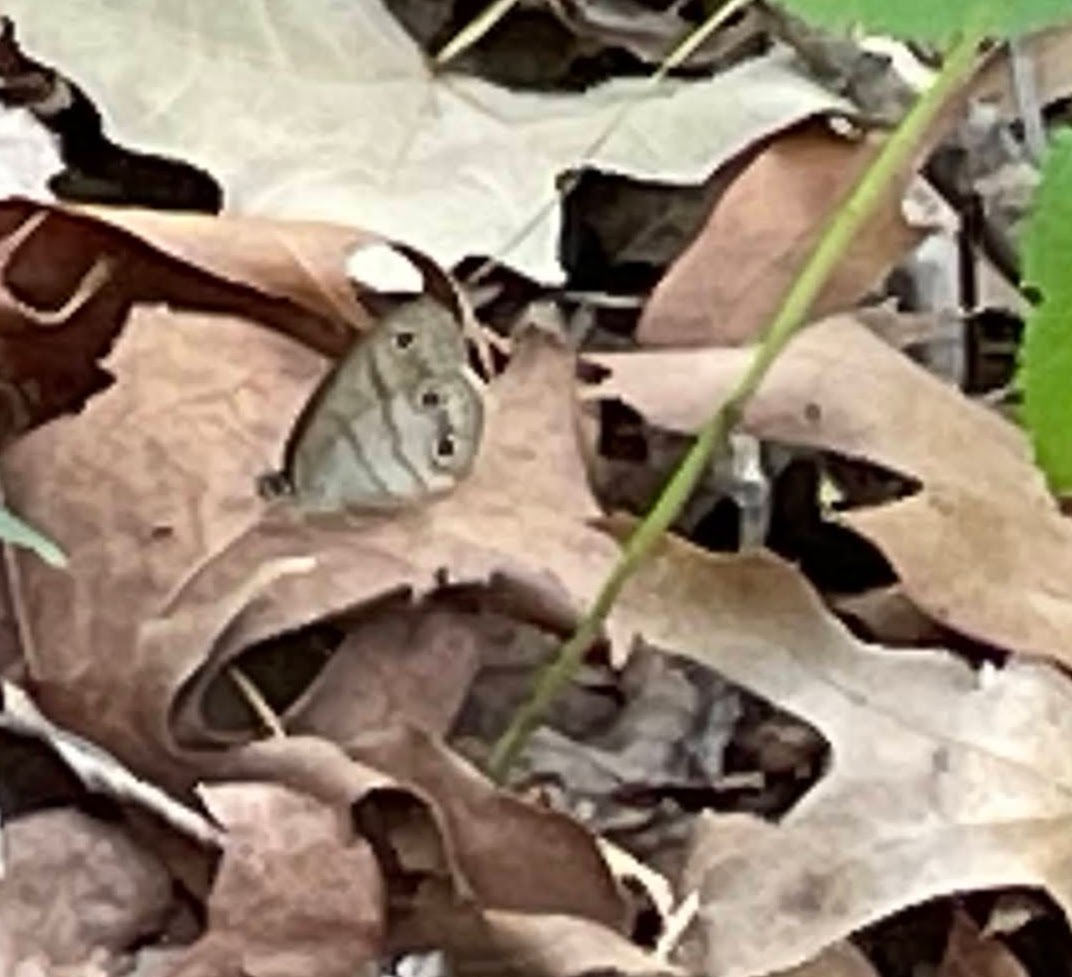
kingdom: Animalia
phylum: Arthropoda
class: Insecta
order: Lepidoptera
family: Nymphalidae
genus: Euptychia
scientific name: Euptychia cymela
